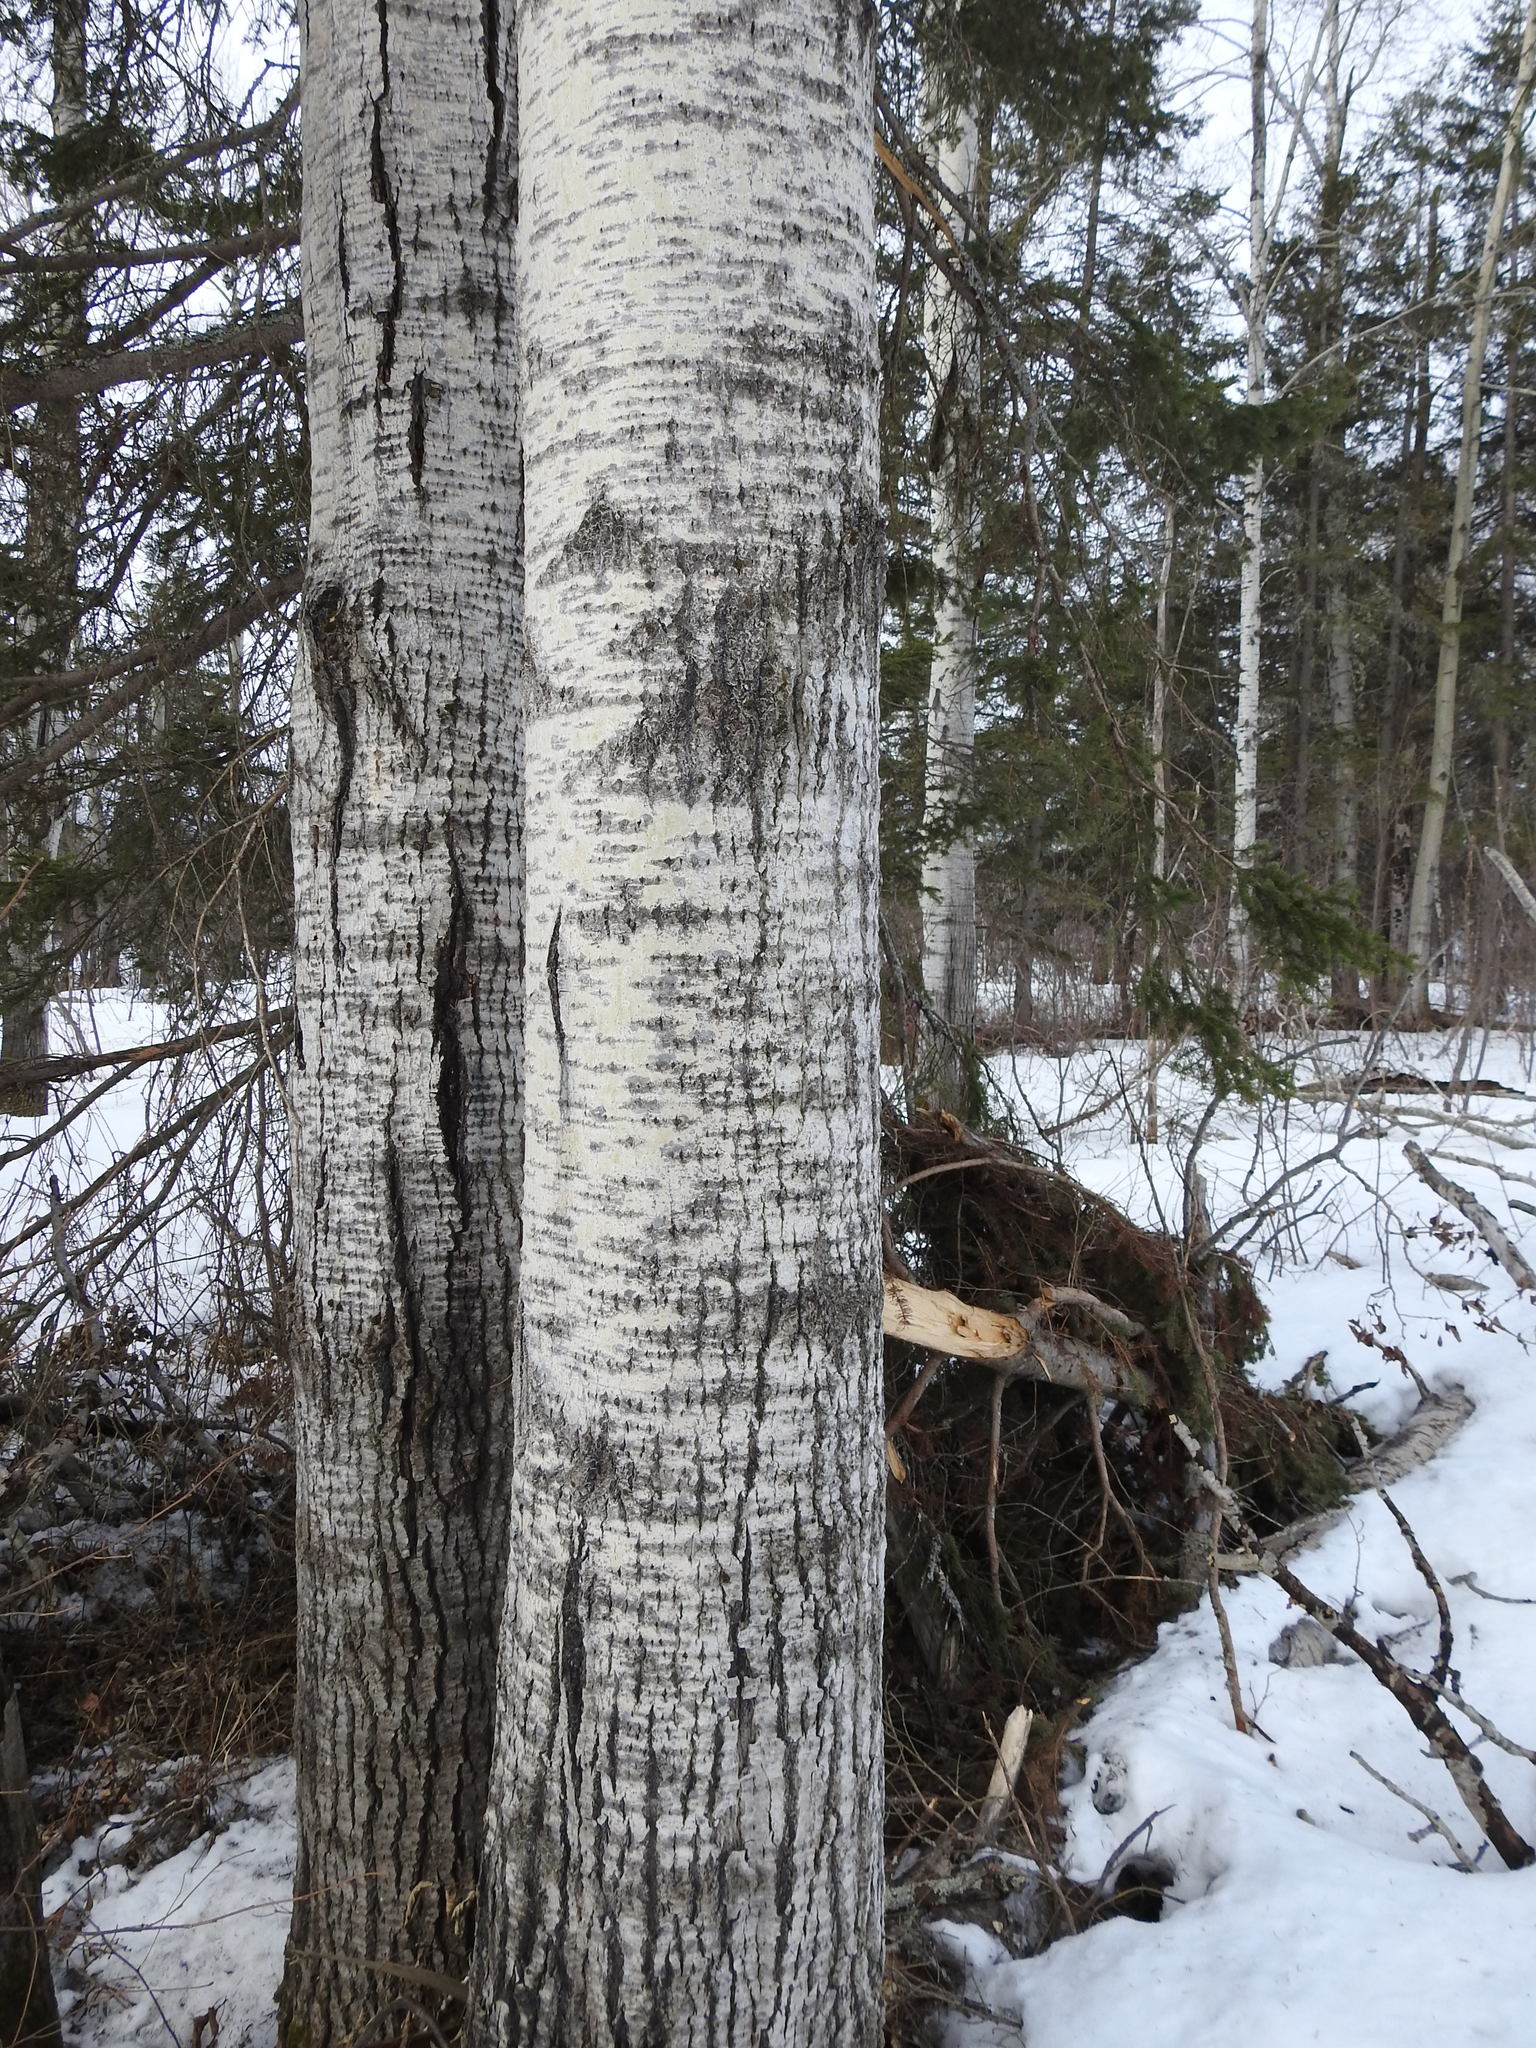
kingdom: Plantae
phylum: Tracheophyta
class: Magnoliopsida
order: Malpighiales
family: Salicaceae
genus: Populus
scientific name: Populus tremuloides
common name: Quaking aspen
